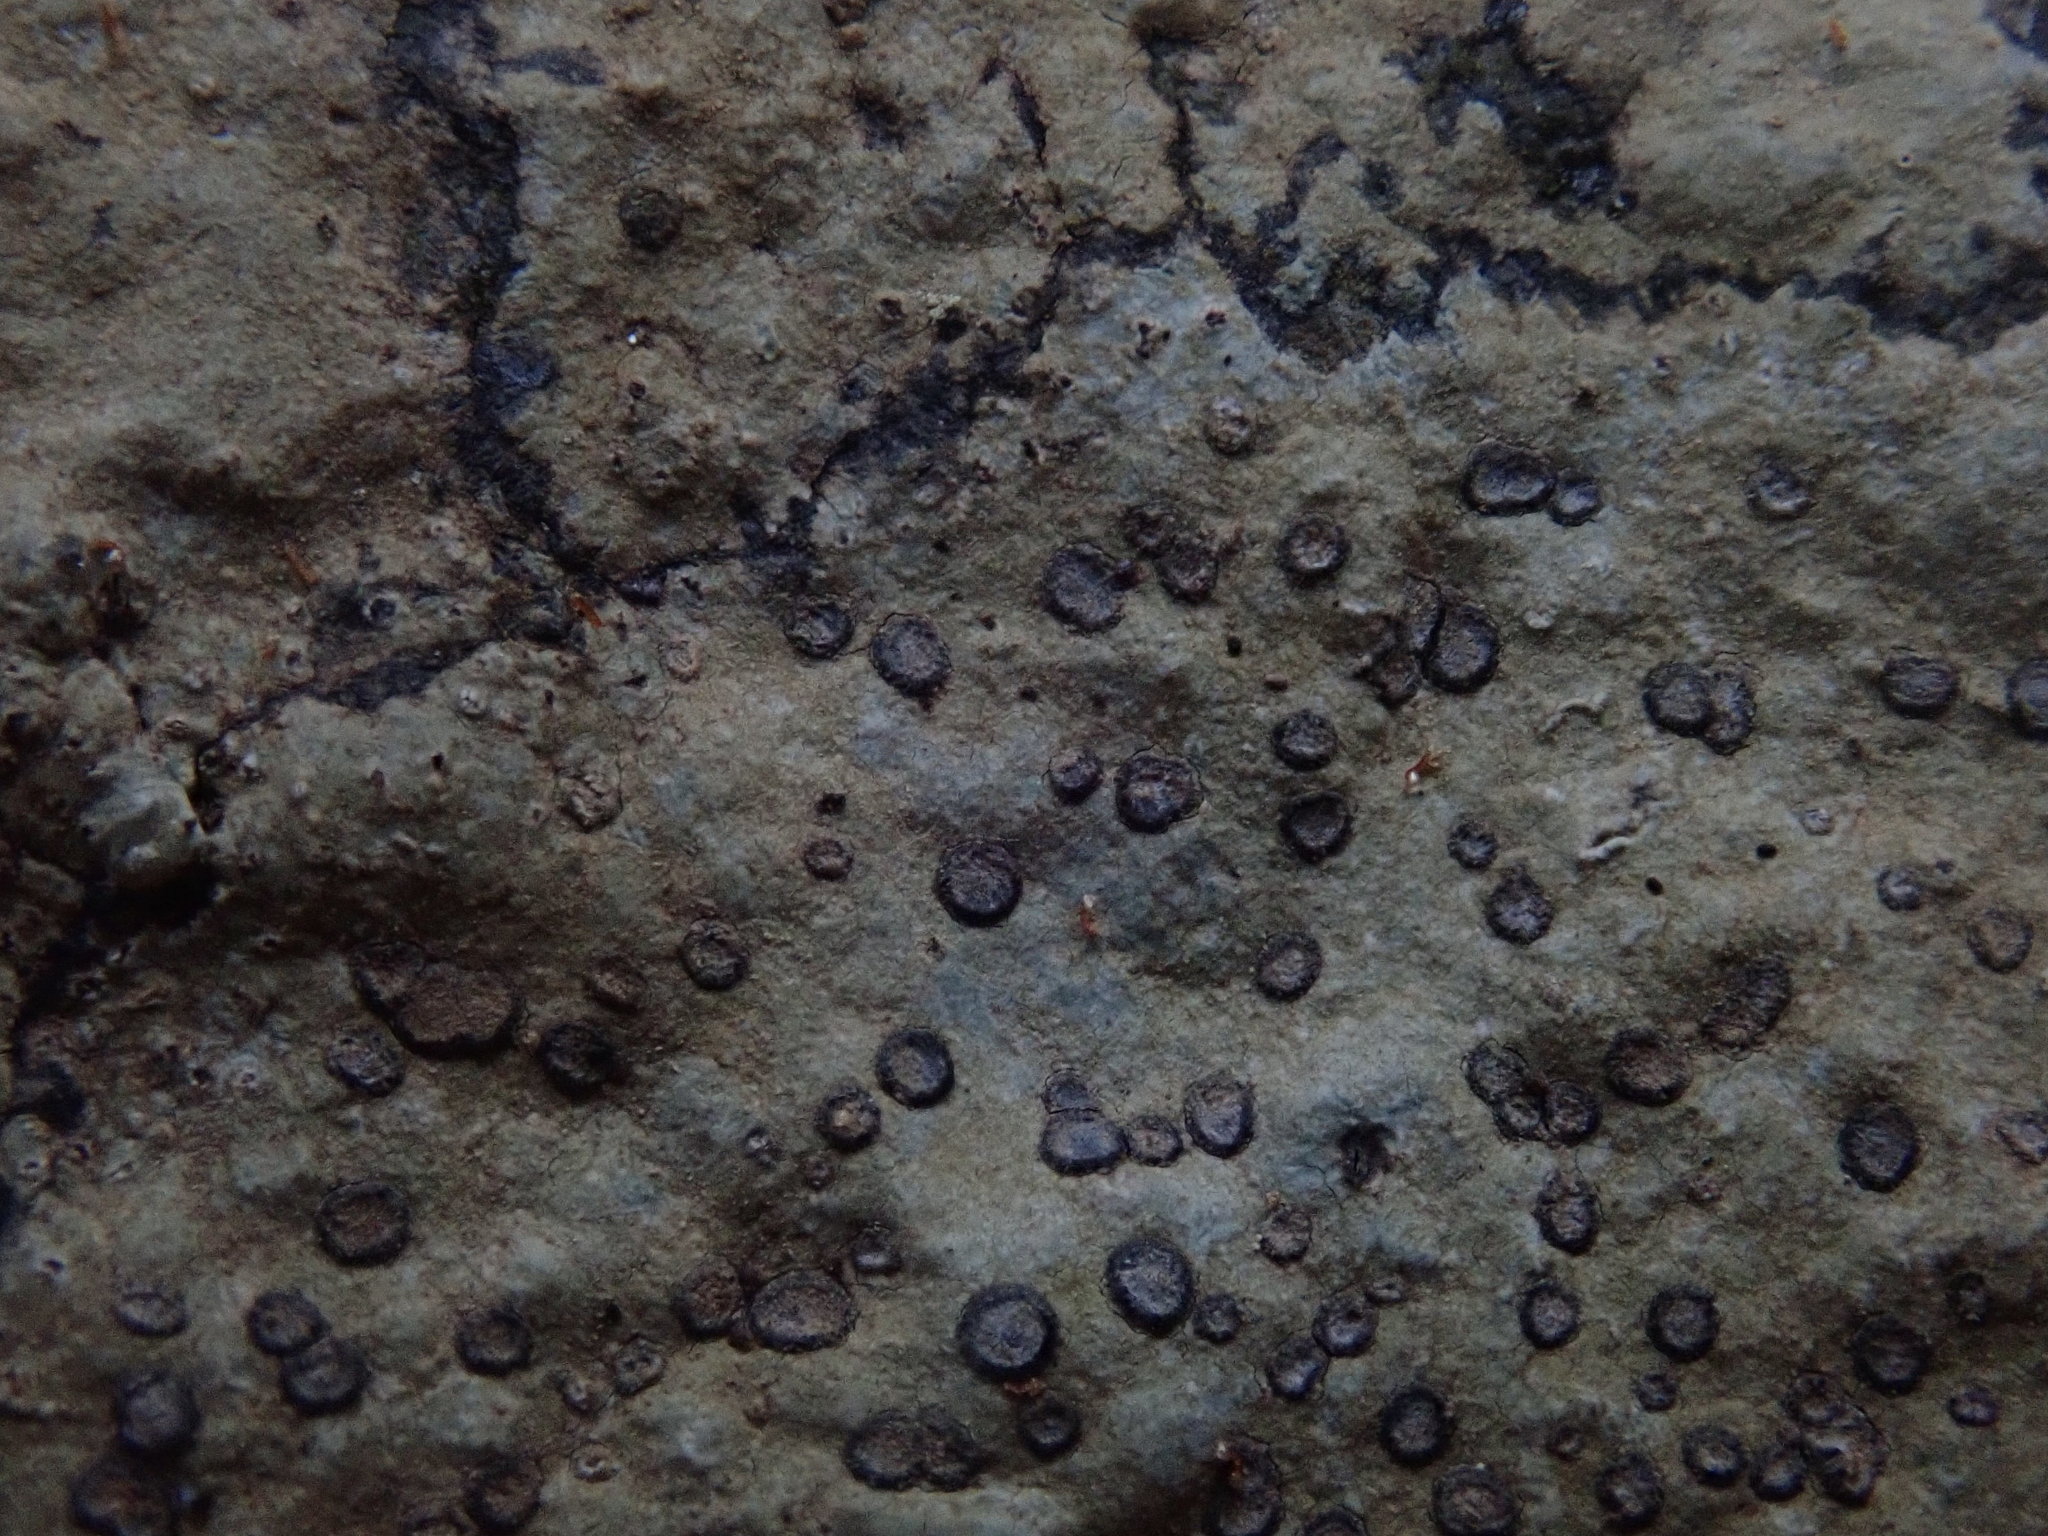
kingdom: Fungi
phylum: Ascomycota
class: Lecanoromycetes
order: Lecideales
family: Lecideaceae
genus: Porpidia
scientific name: Porpidia albocaerulescens
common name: Smokey-eyed boulder lichen
